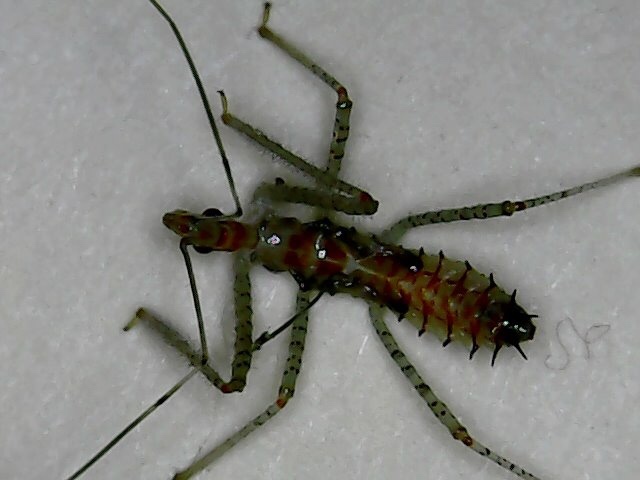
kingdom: Animalia
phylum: Arthropoda
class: Insecta
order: Hemiptera
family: Reduviidae
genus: Zelus
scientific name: Zelus renardii
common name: Assassin bug
